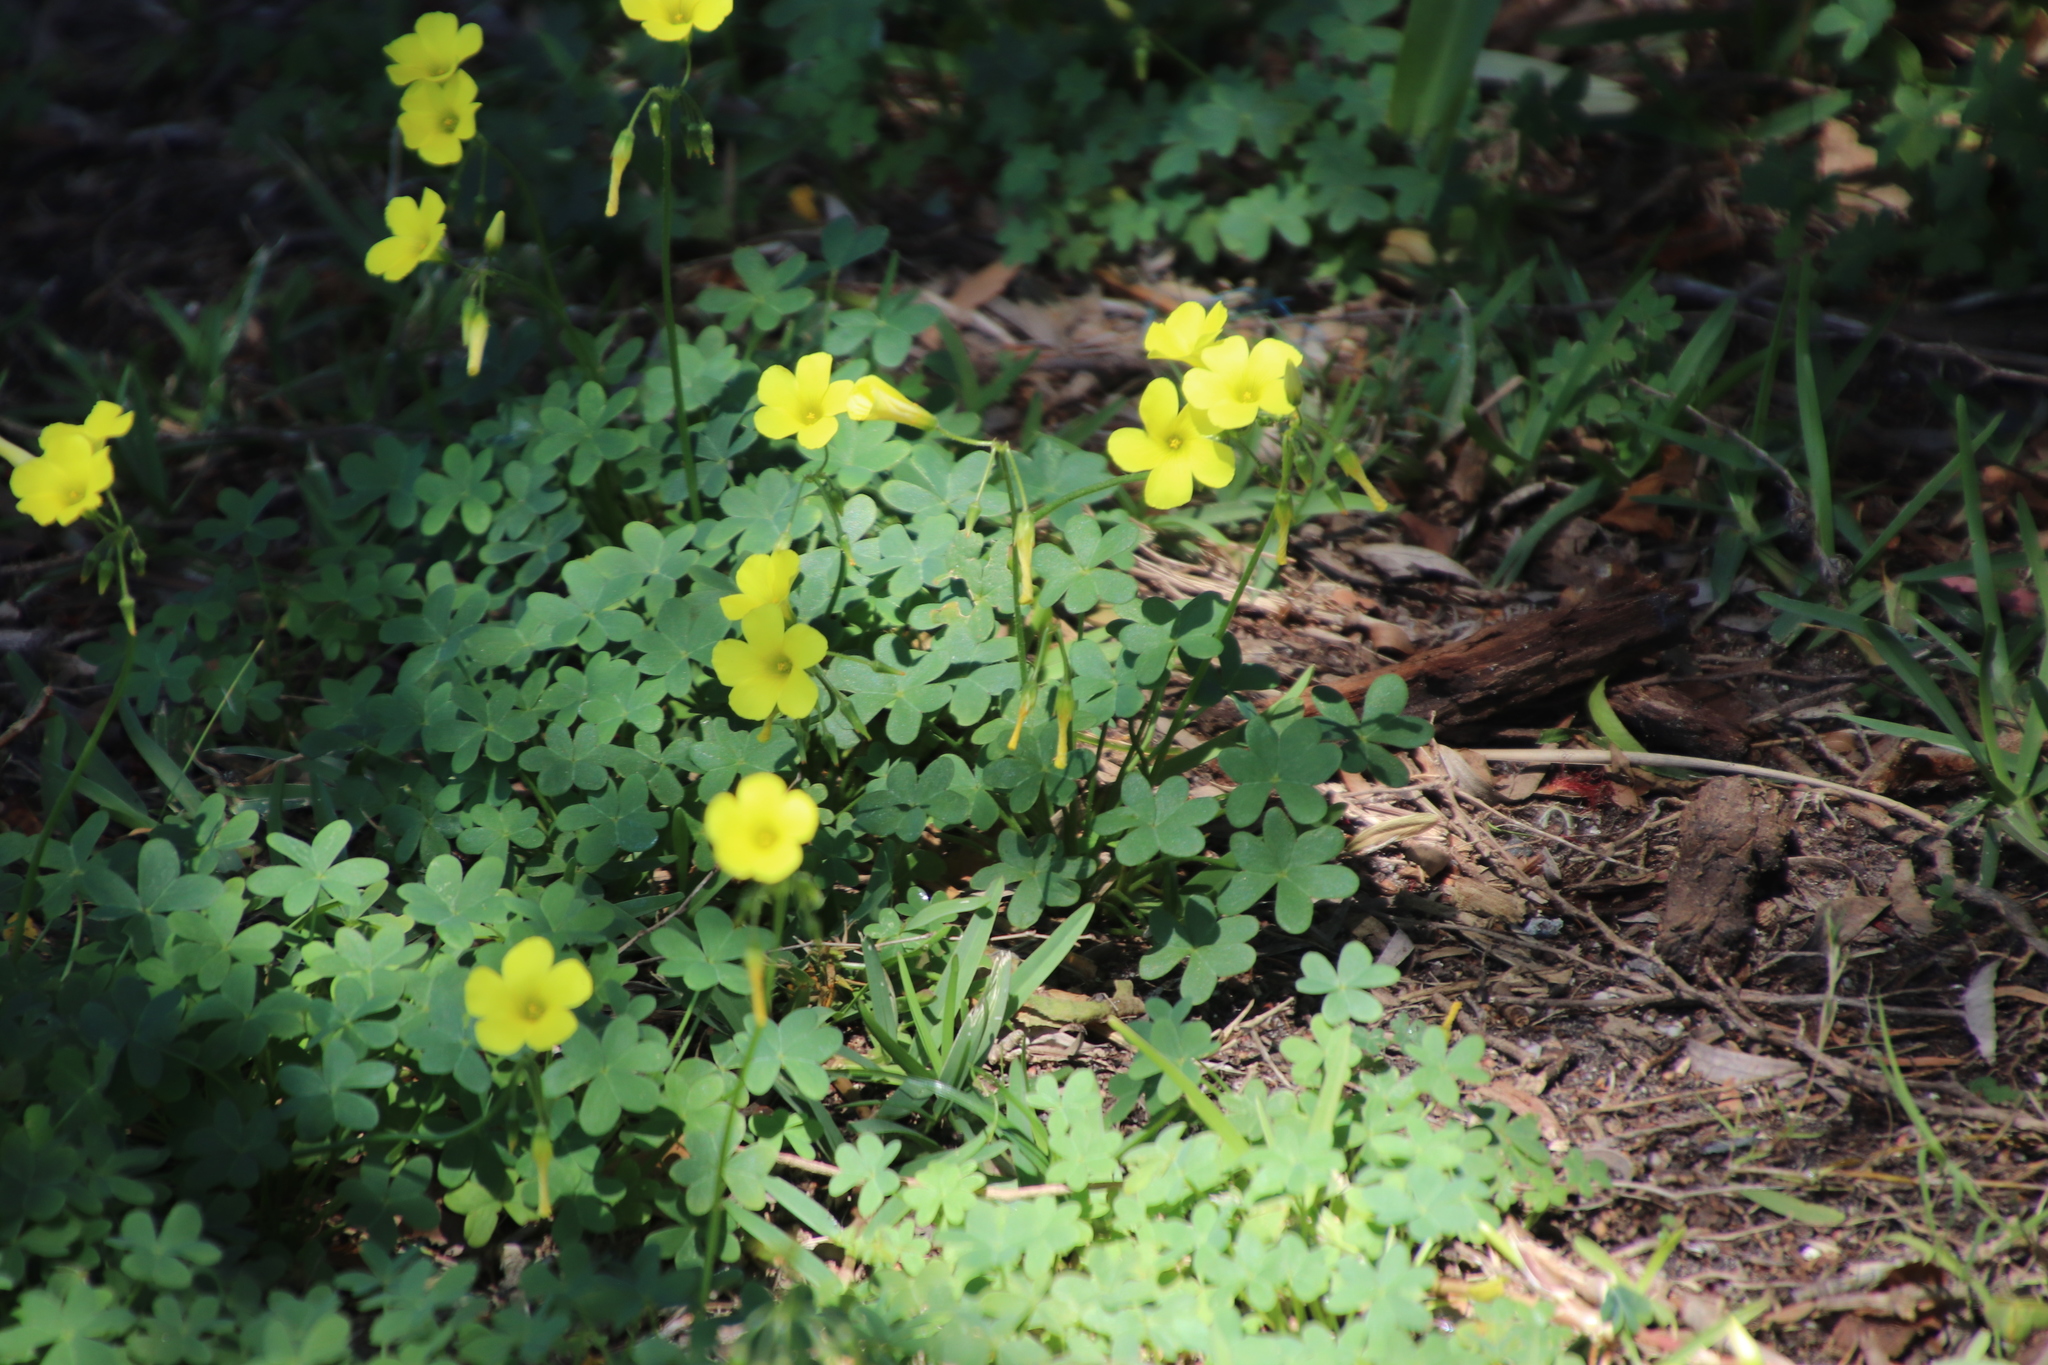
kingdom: Plantae
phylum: Tracheophyta
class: Magnoliopsida
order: Oxalidales
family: Oxalidaceae
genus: Oxalis
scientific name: Oxalis pes-caprae
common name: Bermuda-buttercup
